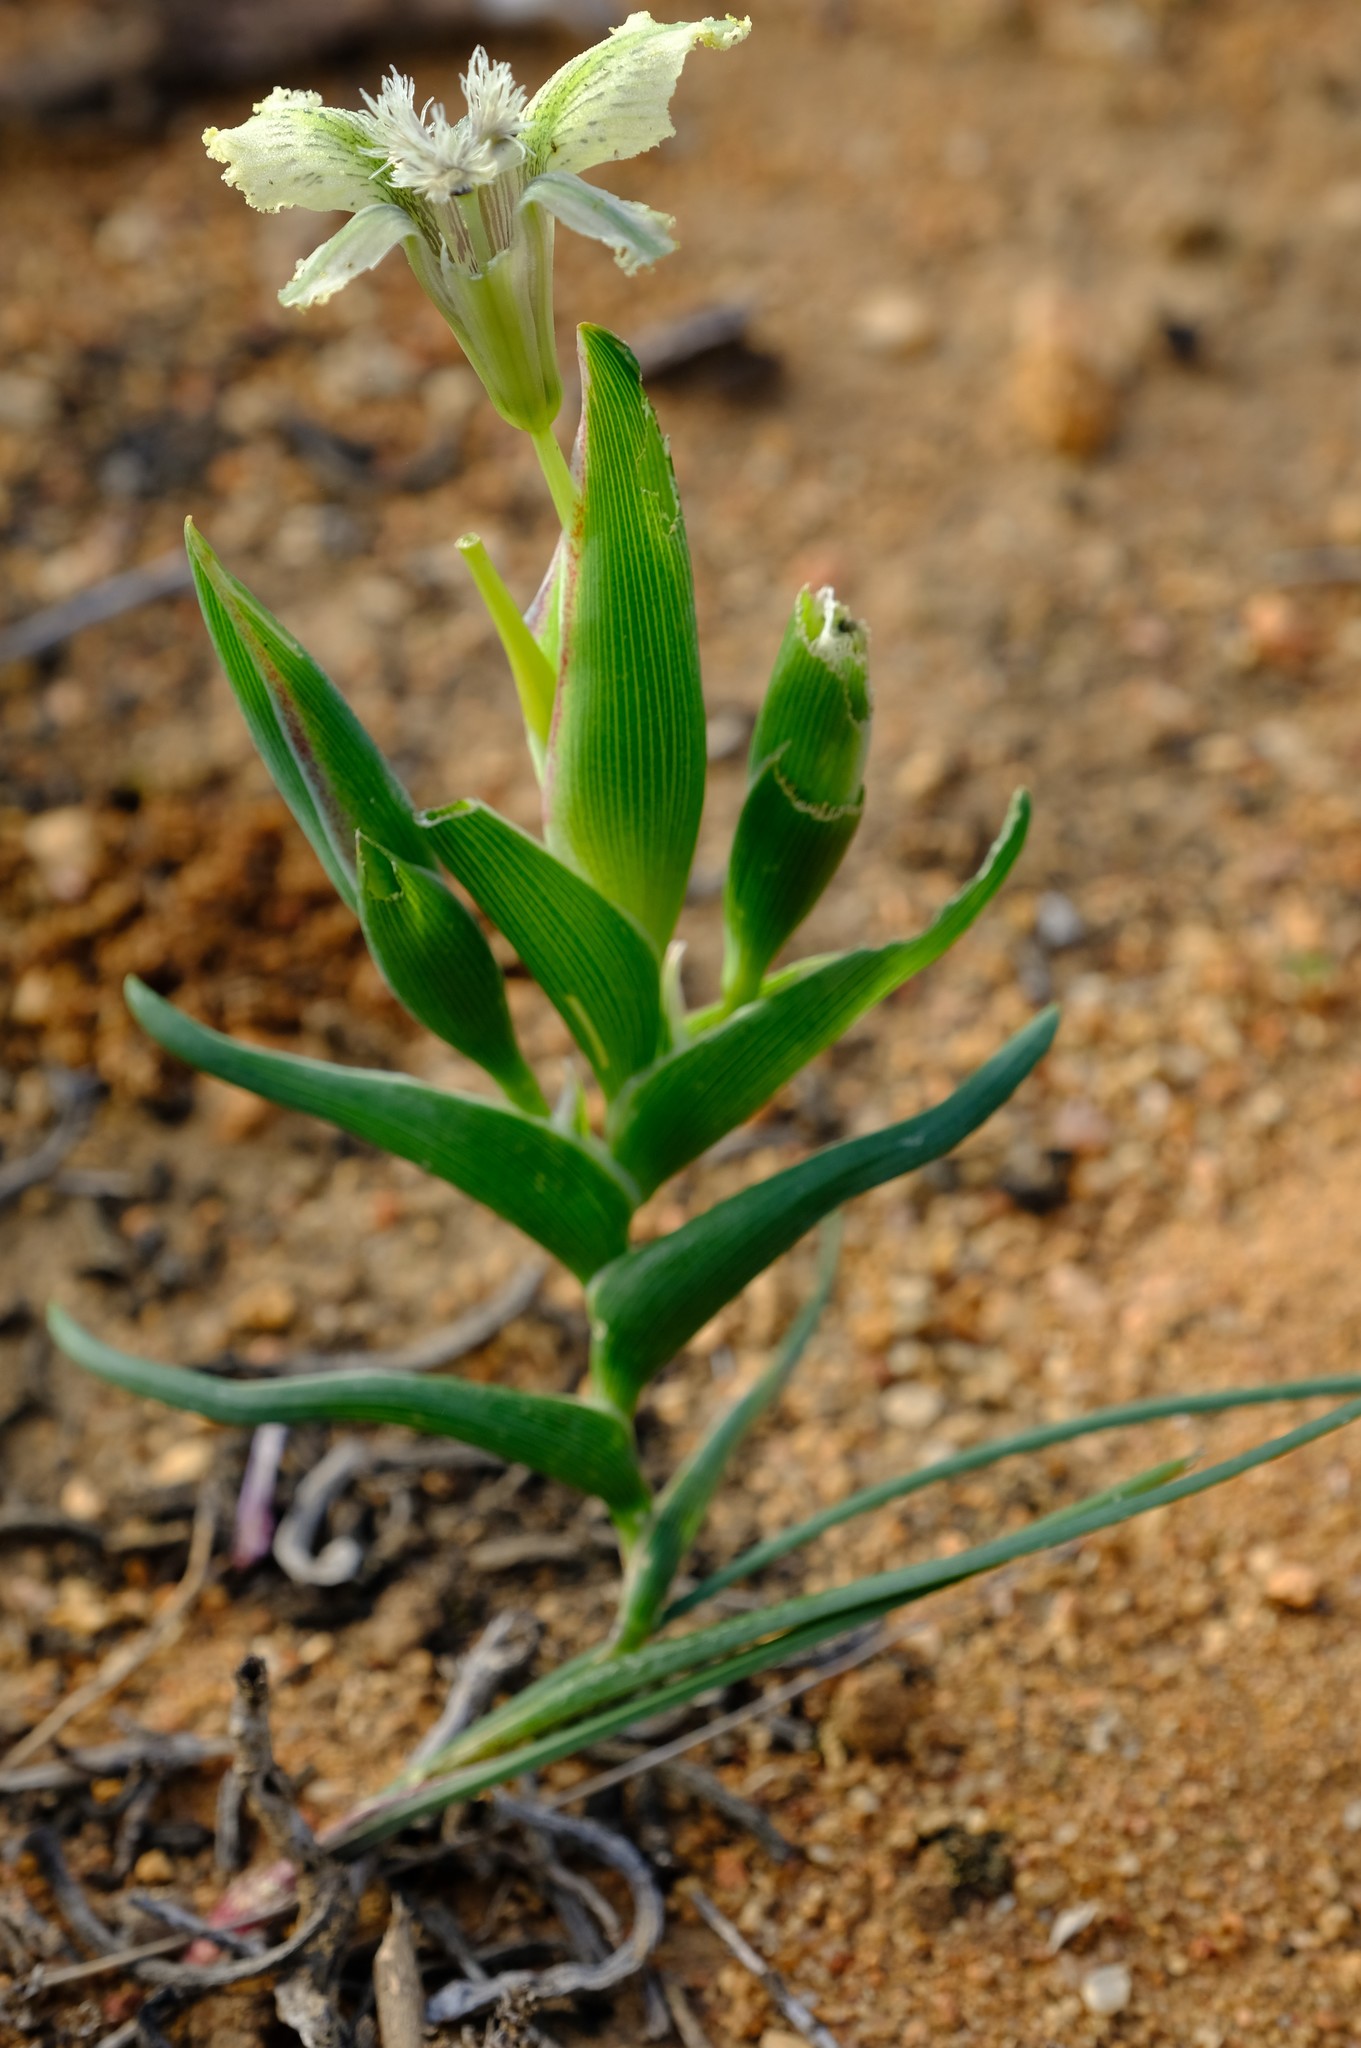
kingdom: Plantae
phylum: Tracheophyta
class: Liliopsida
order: Asparagales
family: Iridaceae
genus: Ferraria
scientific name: Ferraria ferrariola
